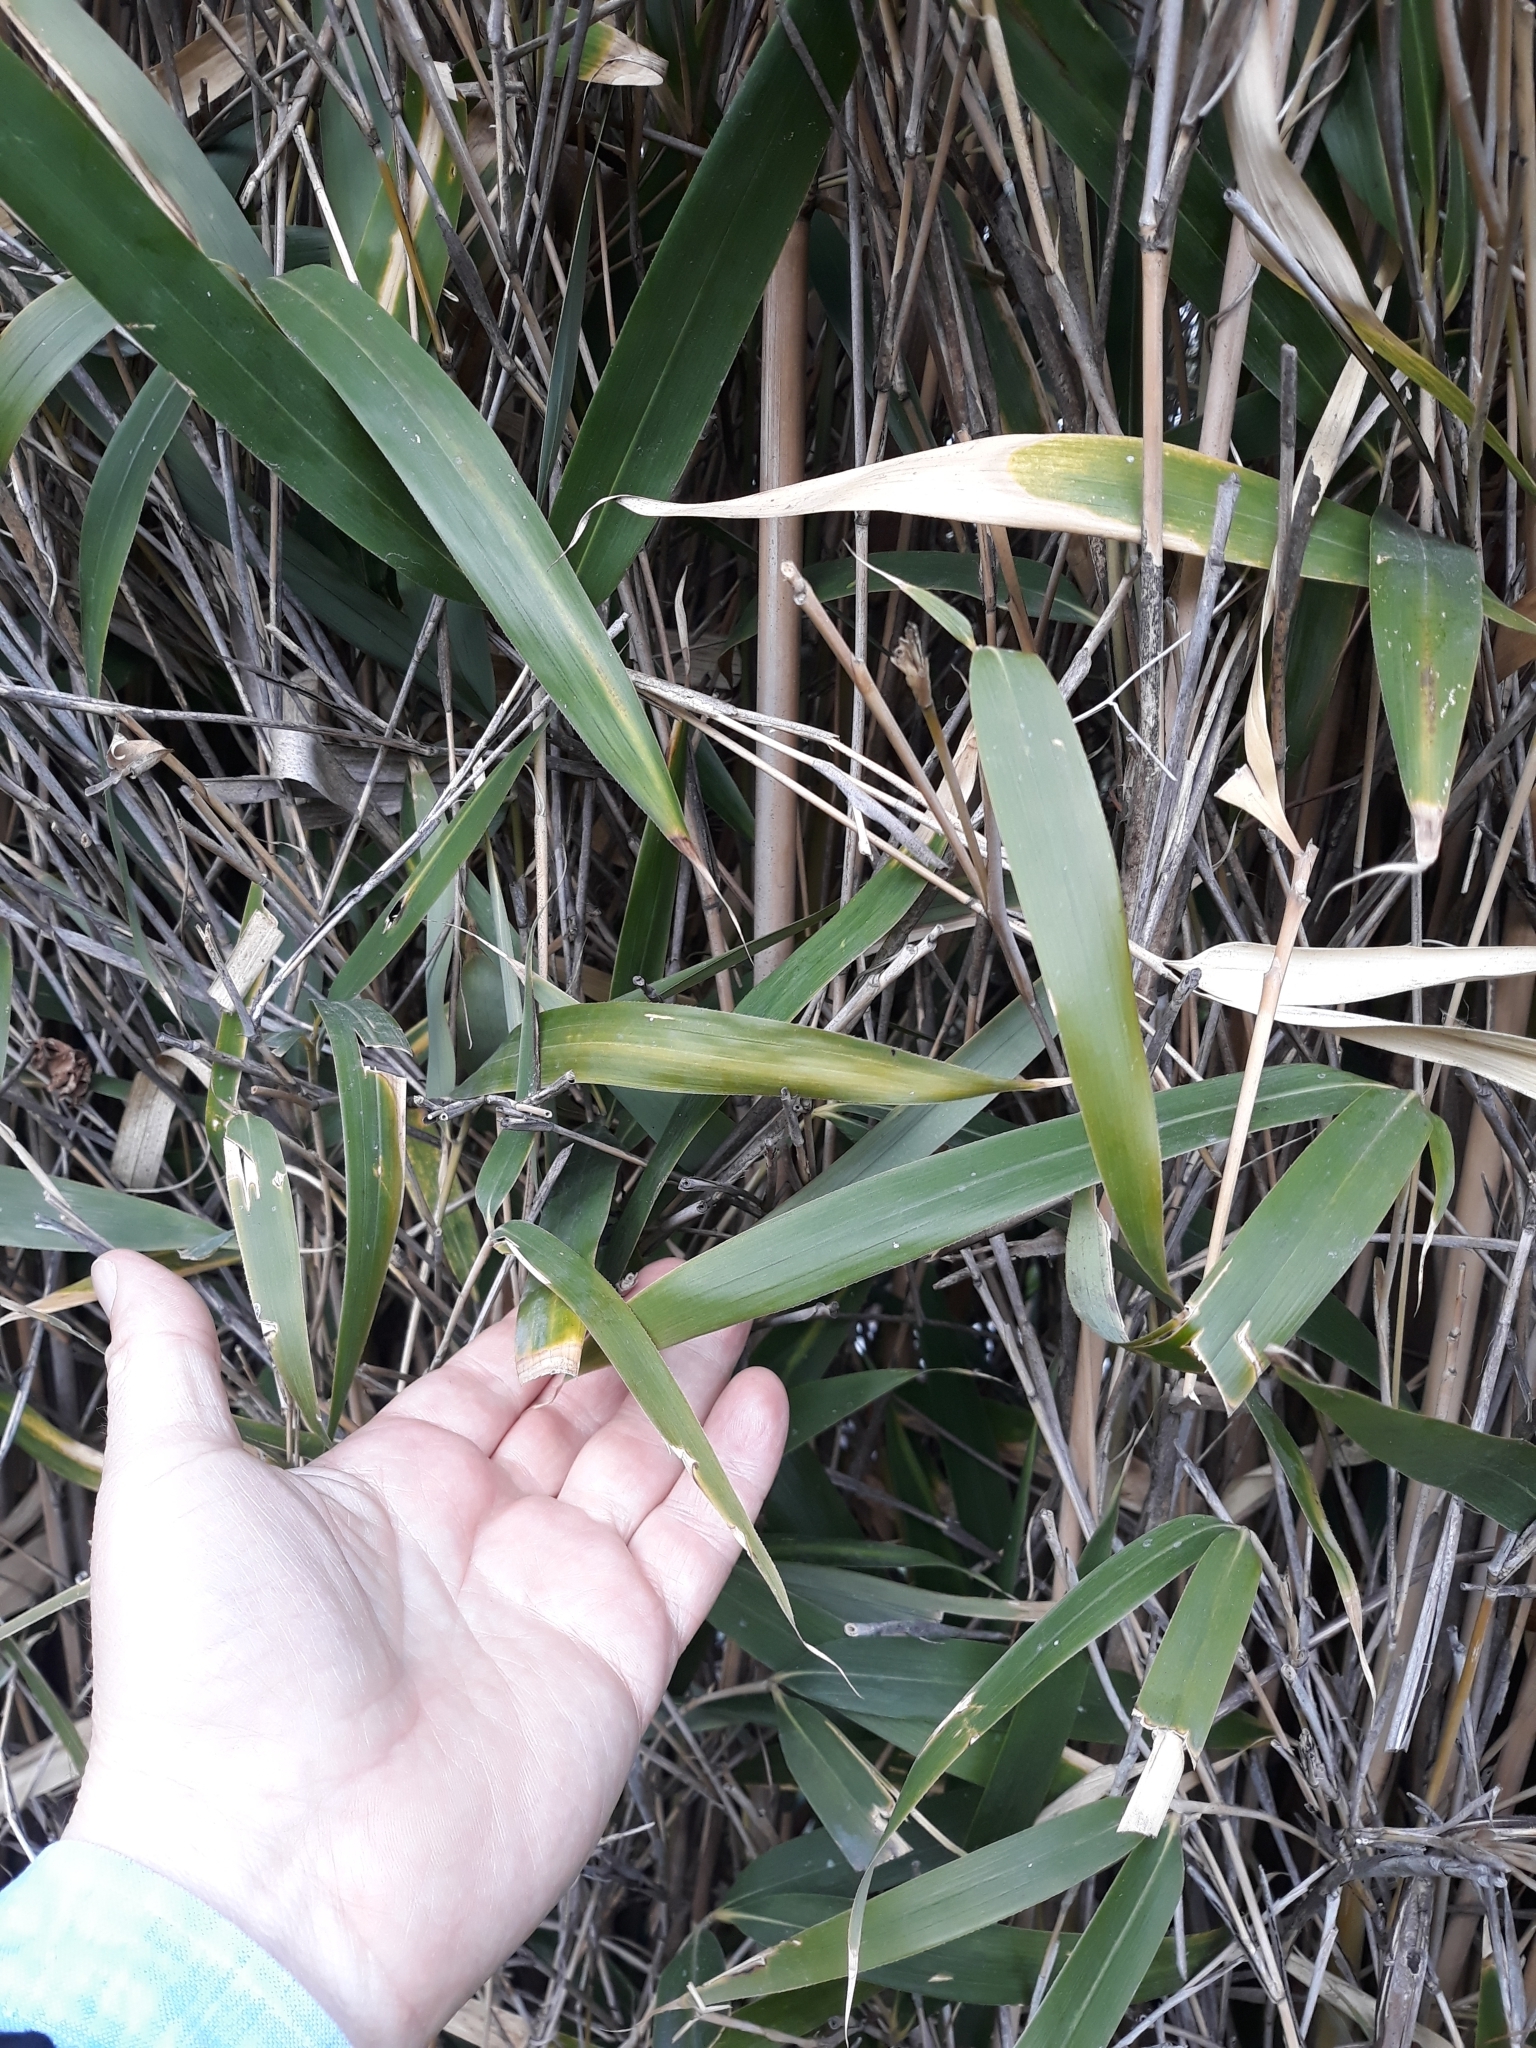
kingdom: Plantae
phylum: Tracheophyta
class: Liliopsida
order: Poales
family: Poaceae
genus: Arundo
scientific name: Arundo donax
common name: Giant reed
